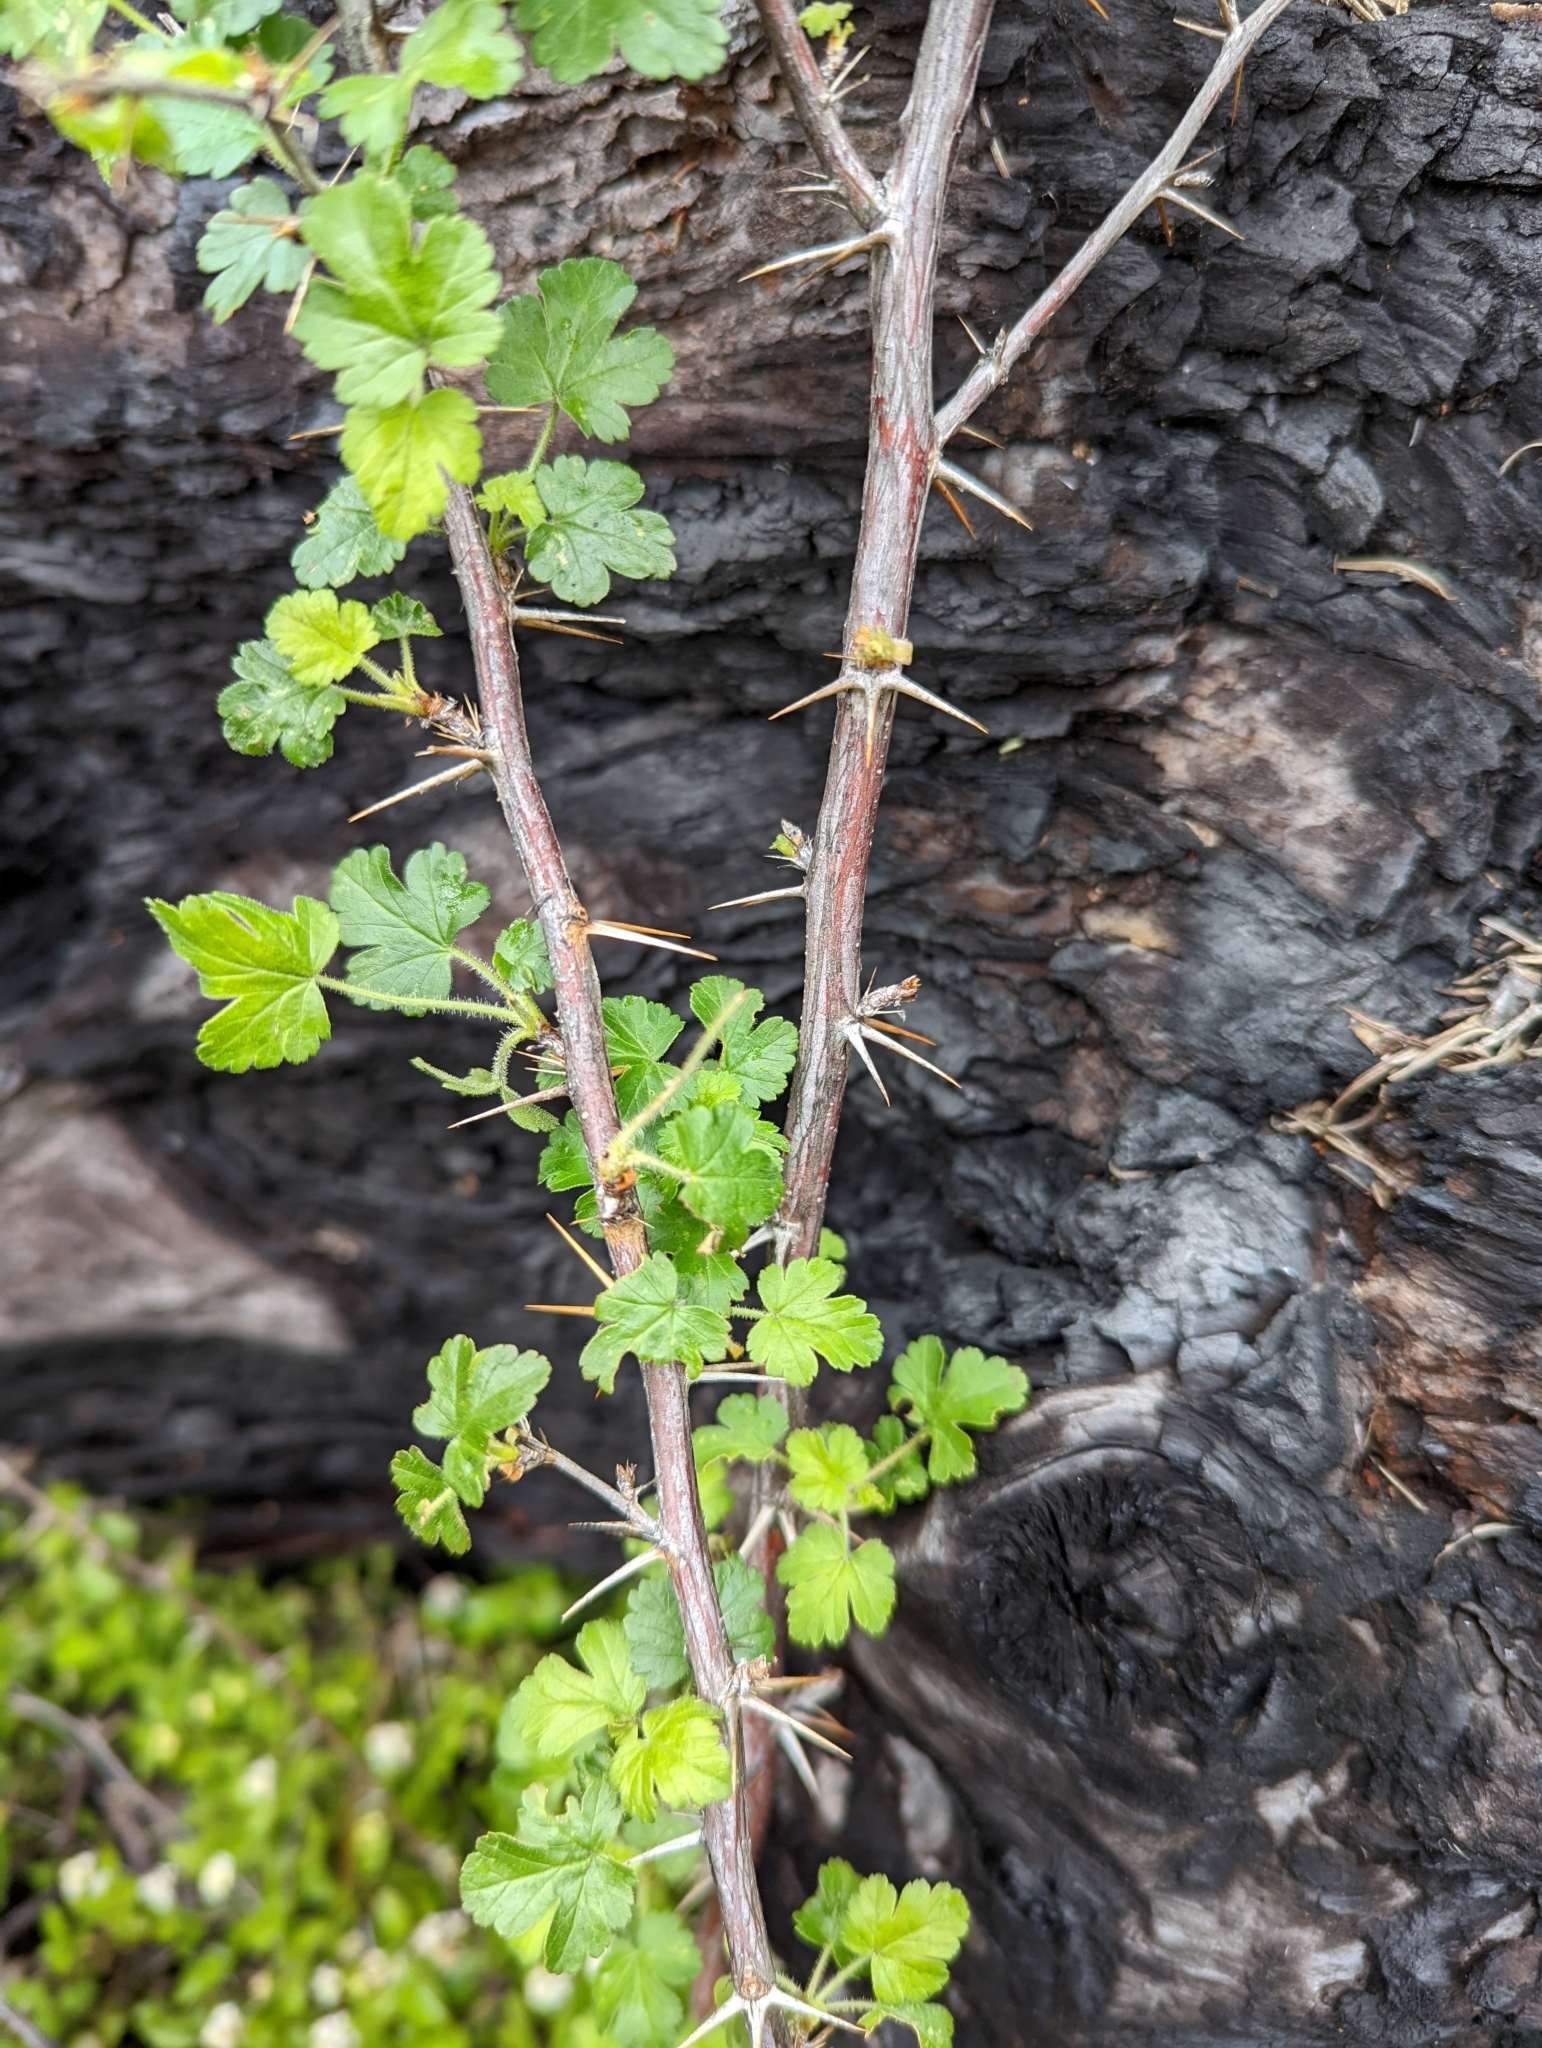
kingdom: Plantae
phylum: Tracheophyta
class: Magnoliopsida
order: Saxifragales
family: Grossulariaceae
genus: Ribes
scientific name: Ribes lobbii
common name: Gummy gooseberry
